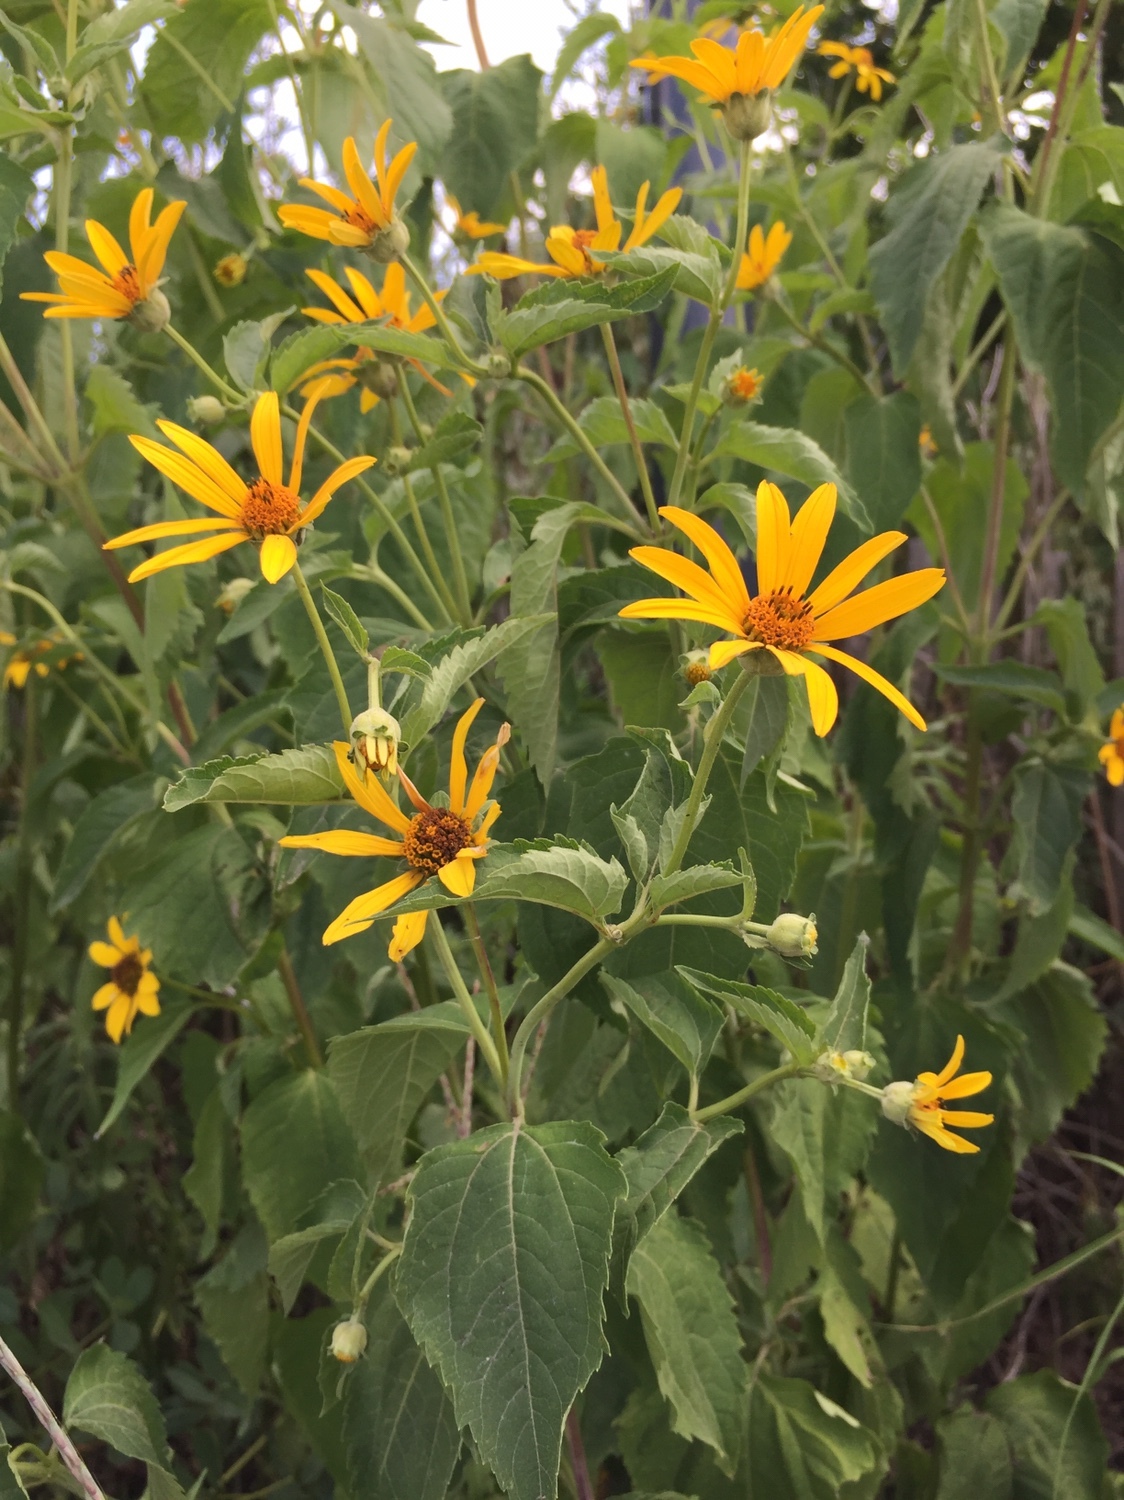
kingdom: Plantae
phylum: Tracheophyta
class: Magnoliopsida
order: Asterales
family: Asteraceae
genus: Heliopsis
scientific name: Heliopsis helianthoides
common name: False sunflower
